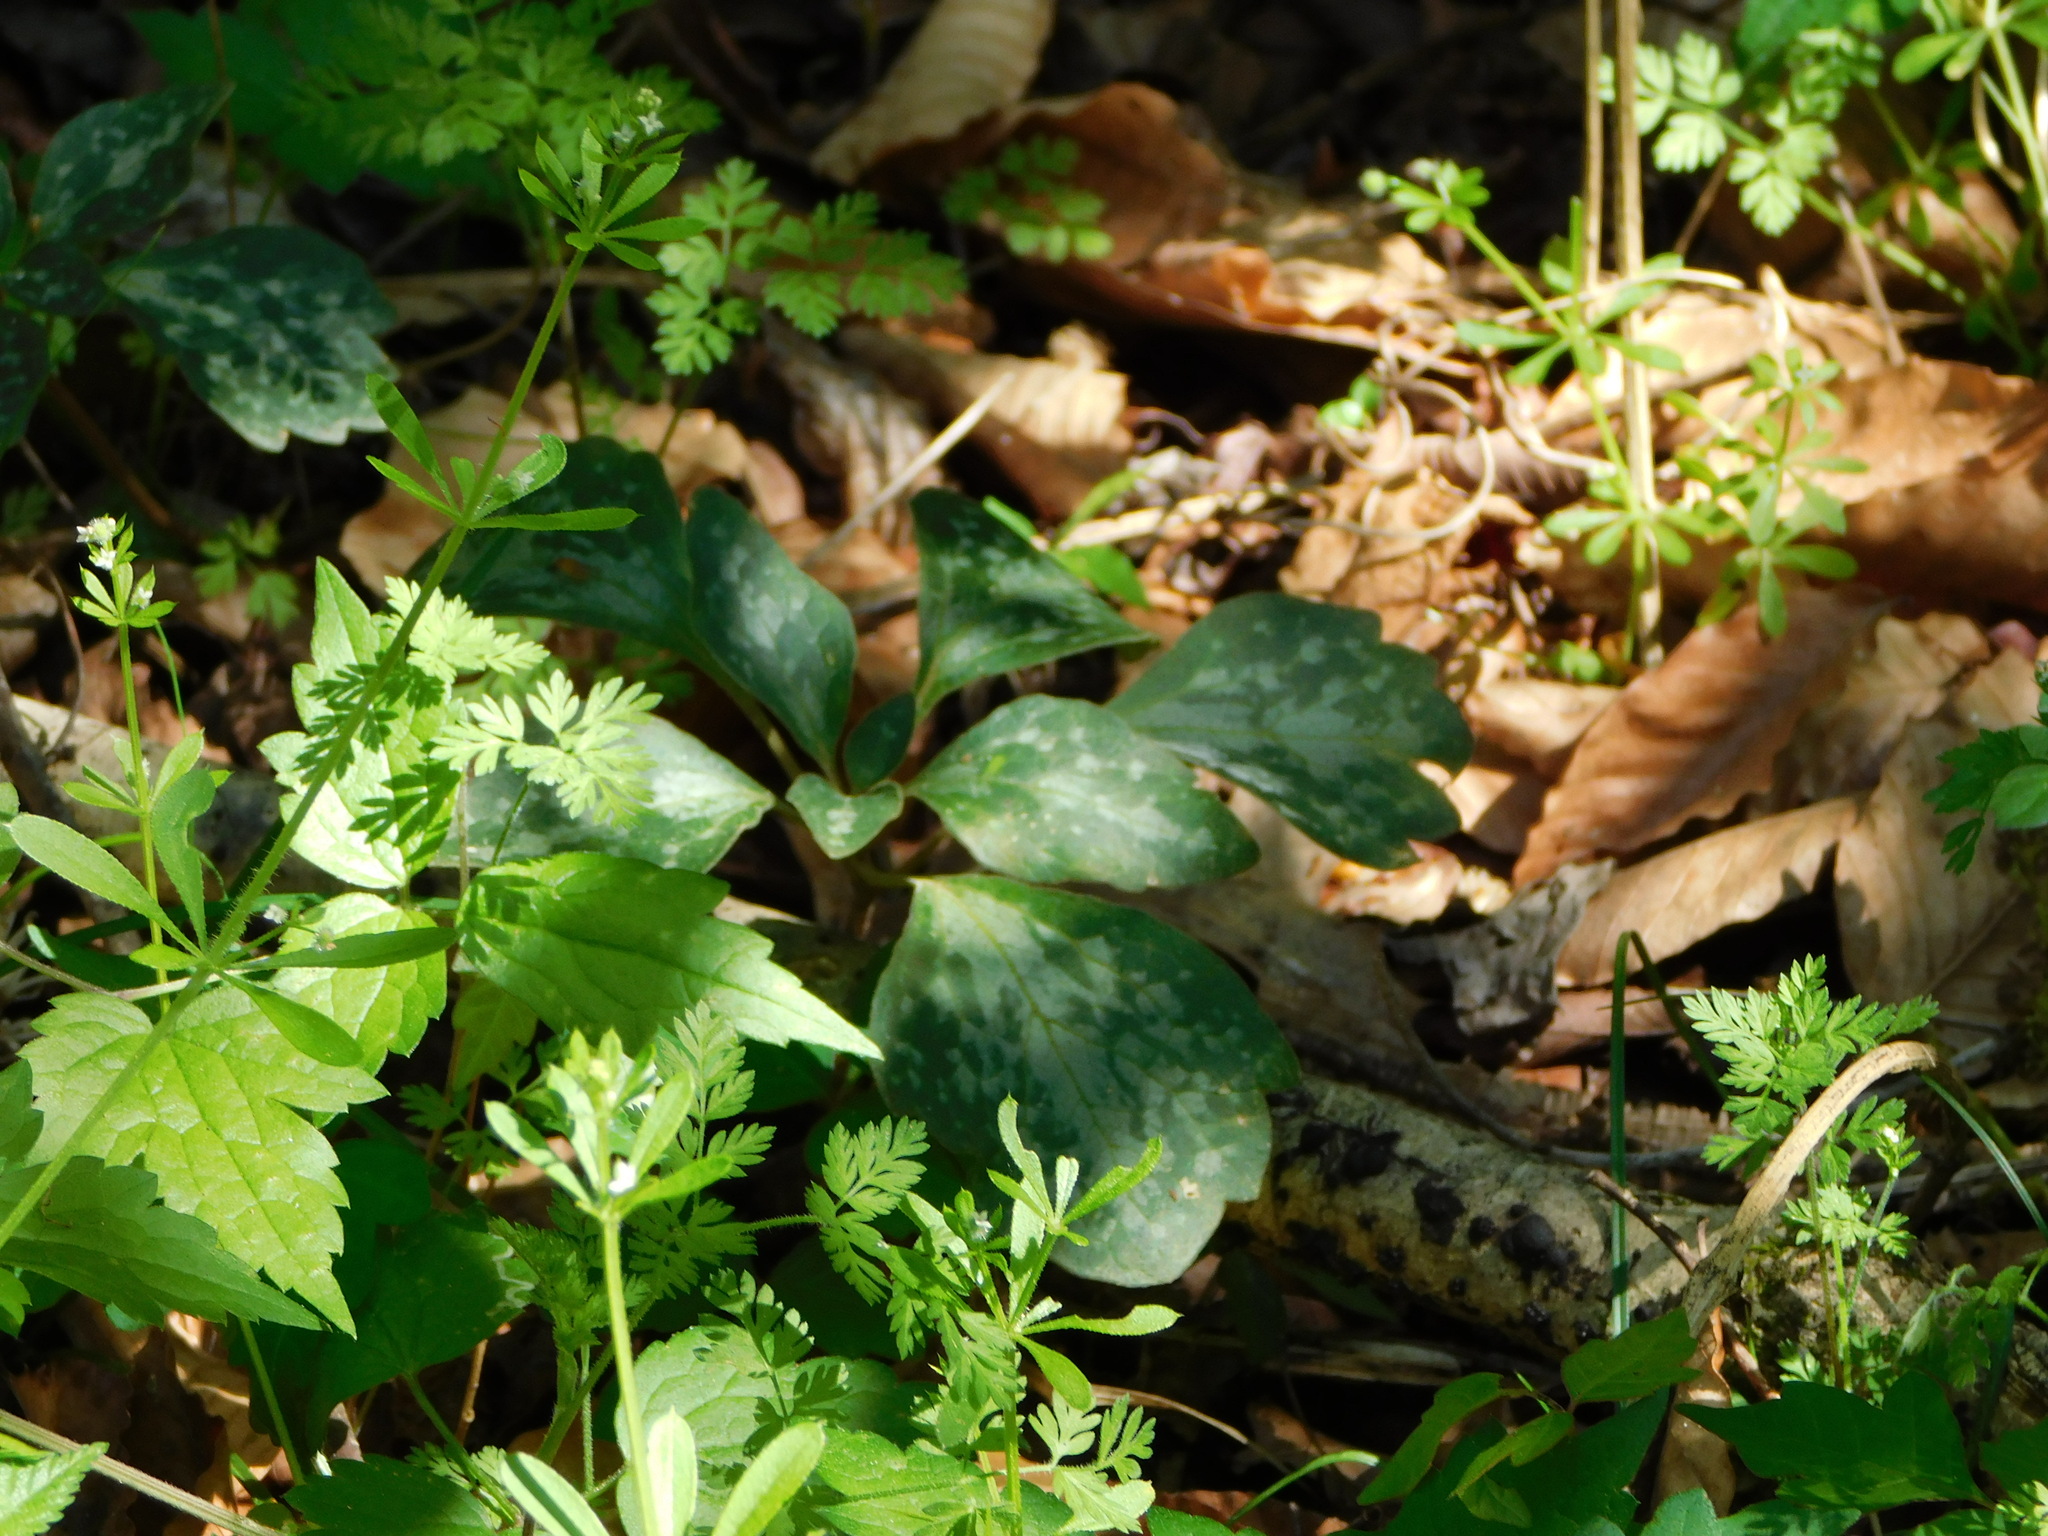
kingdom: Plantae
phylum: Tracheophyta
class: Magnoliopsida
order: Buxales
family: Buxaceae
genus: Pachysandra
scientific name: Pachysandra procumbens
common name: Mountain-spurge
